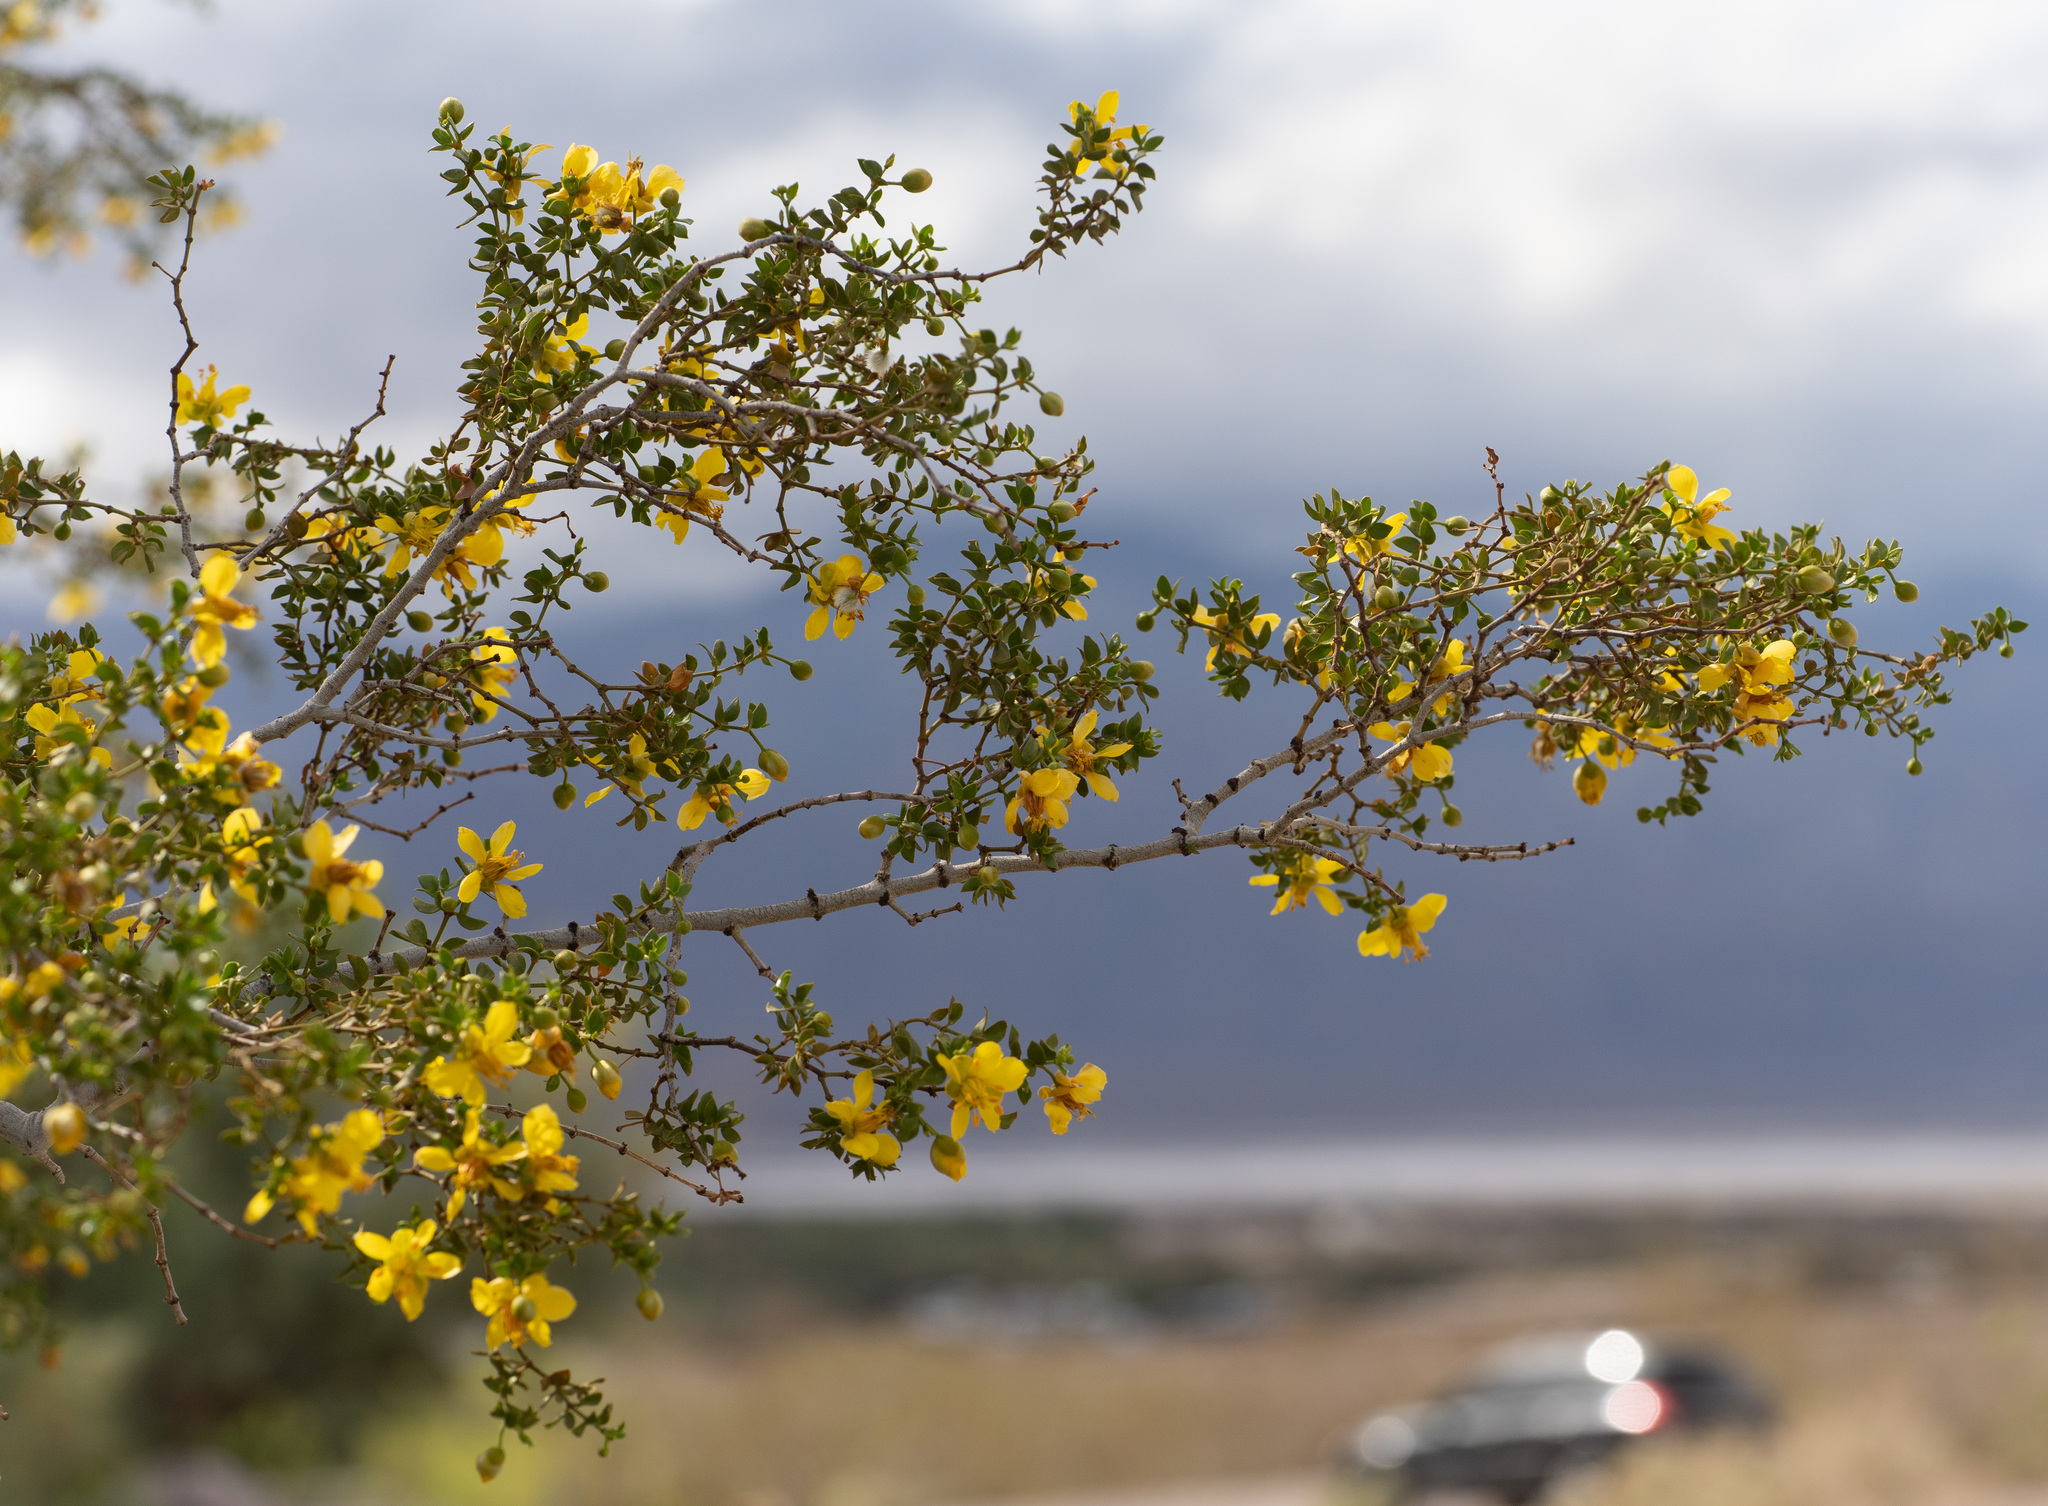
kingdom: Plantae
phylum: Tracheophyta
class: Magnoliopsida
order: Zygophyllales
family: Zygophyllaceae
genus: Larrea
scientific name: Larrea tridentata
